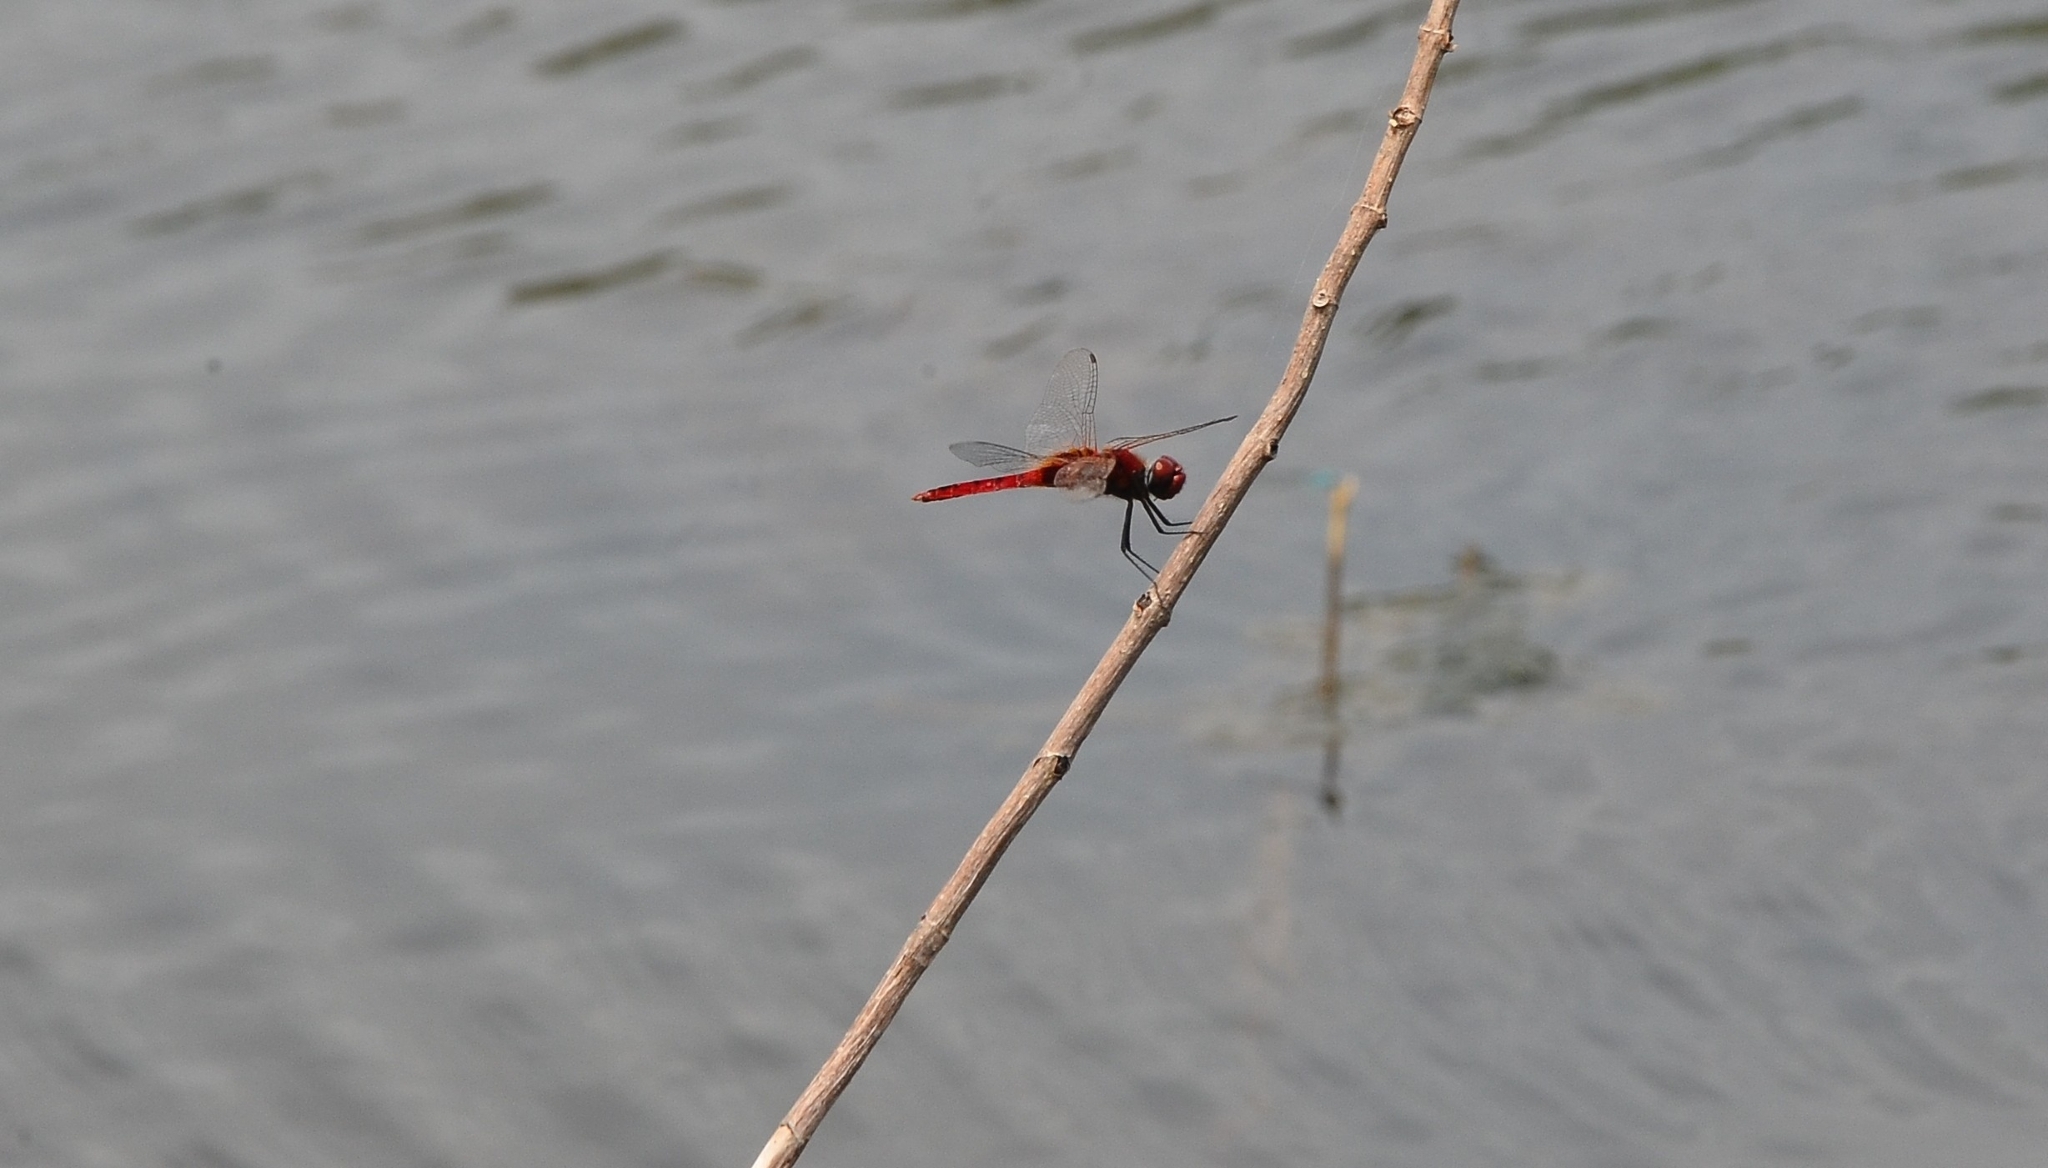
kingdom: Animalia
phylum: Arthropoda
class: Insecta
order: Odonata
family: Libellulidae
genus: Urothemis
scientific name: Urothemis signata
